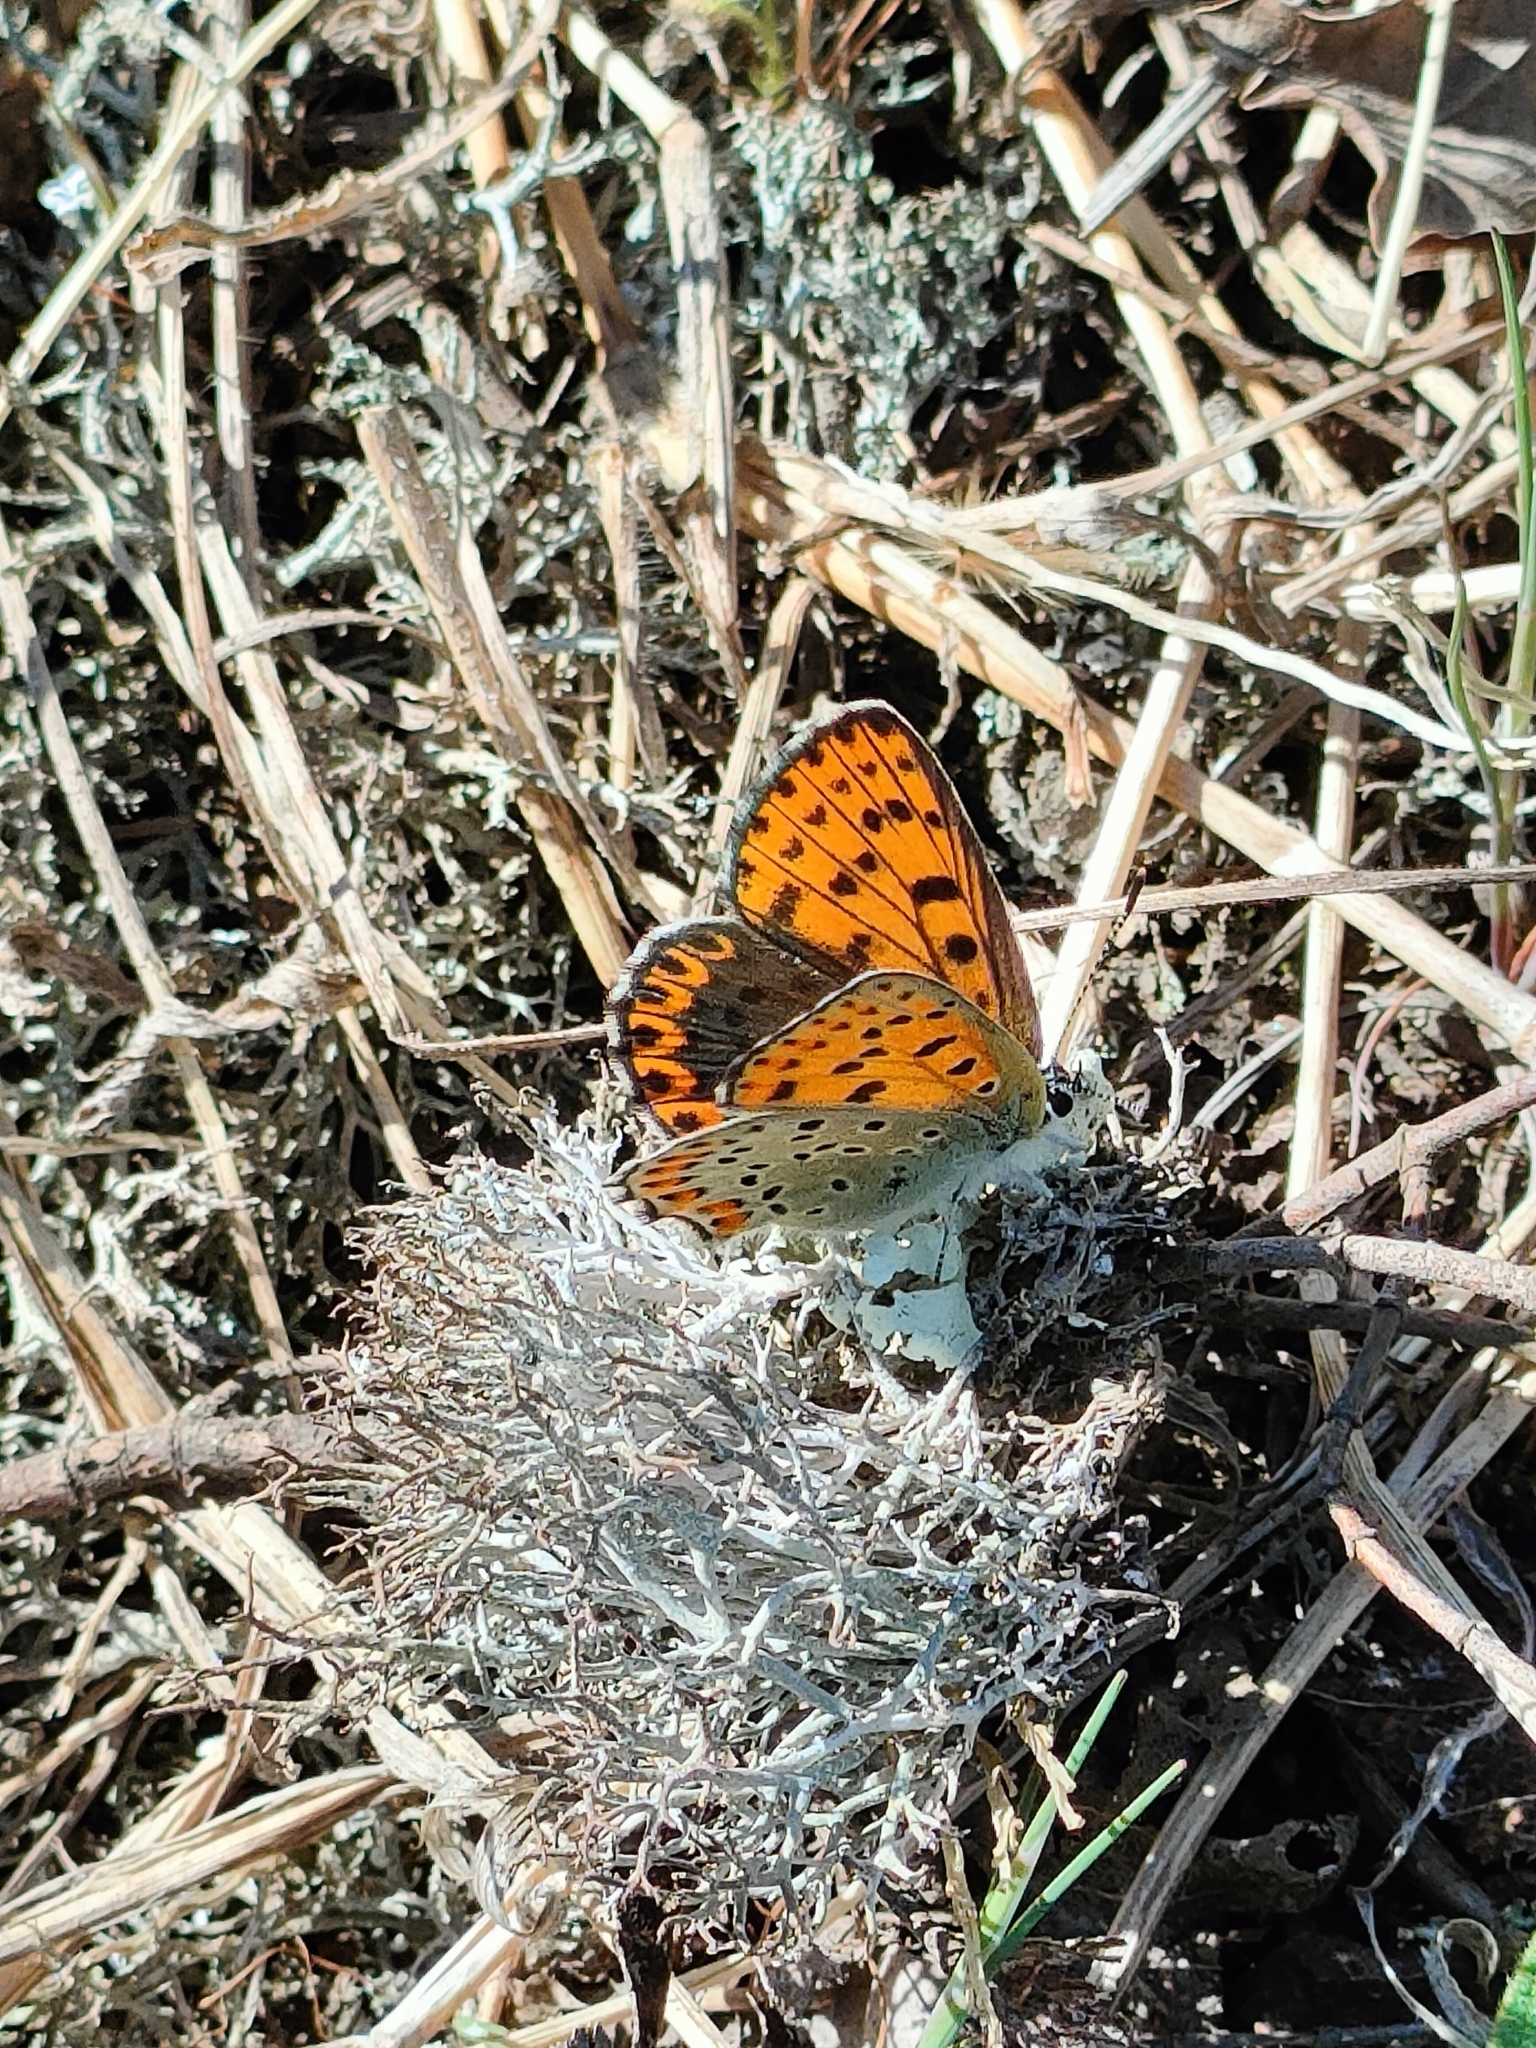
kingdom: Animalia
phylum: Arthropoda
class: Insecta
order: Lepidoptera
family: Lycaenidae
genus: Loweia
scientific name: Loweia tityrus
